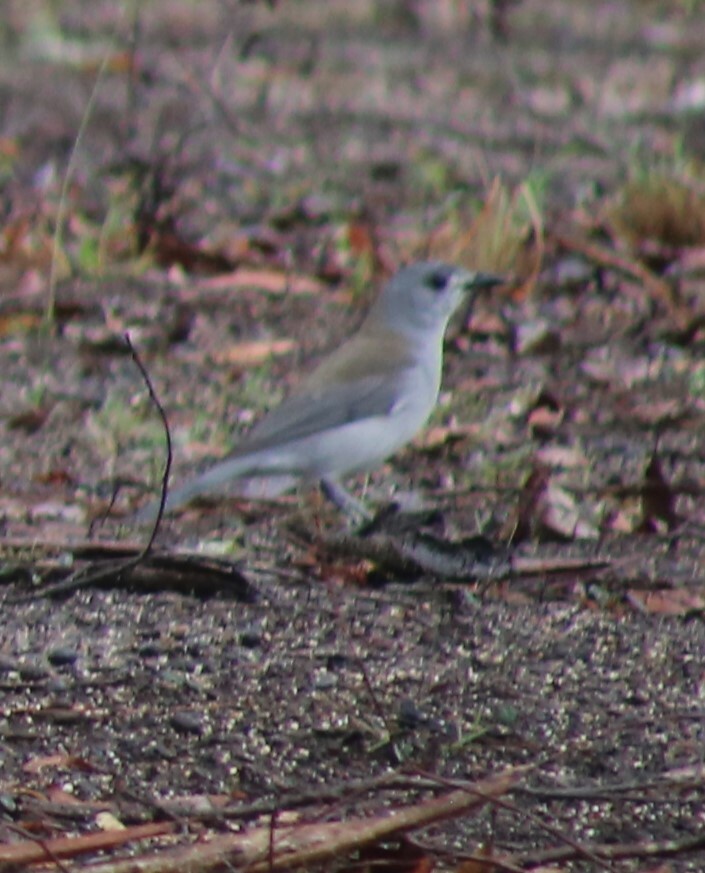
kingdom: Animalia
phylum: Chordata
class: Aves
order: Passeriformes
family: Pachycephalidae
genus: Colluricincla
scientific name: Colluricincla harmonica
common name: Grey shrikethrush
